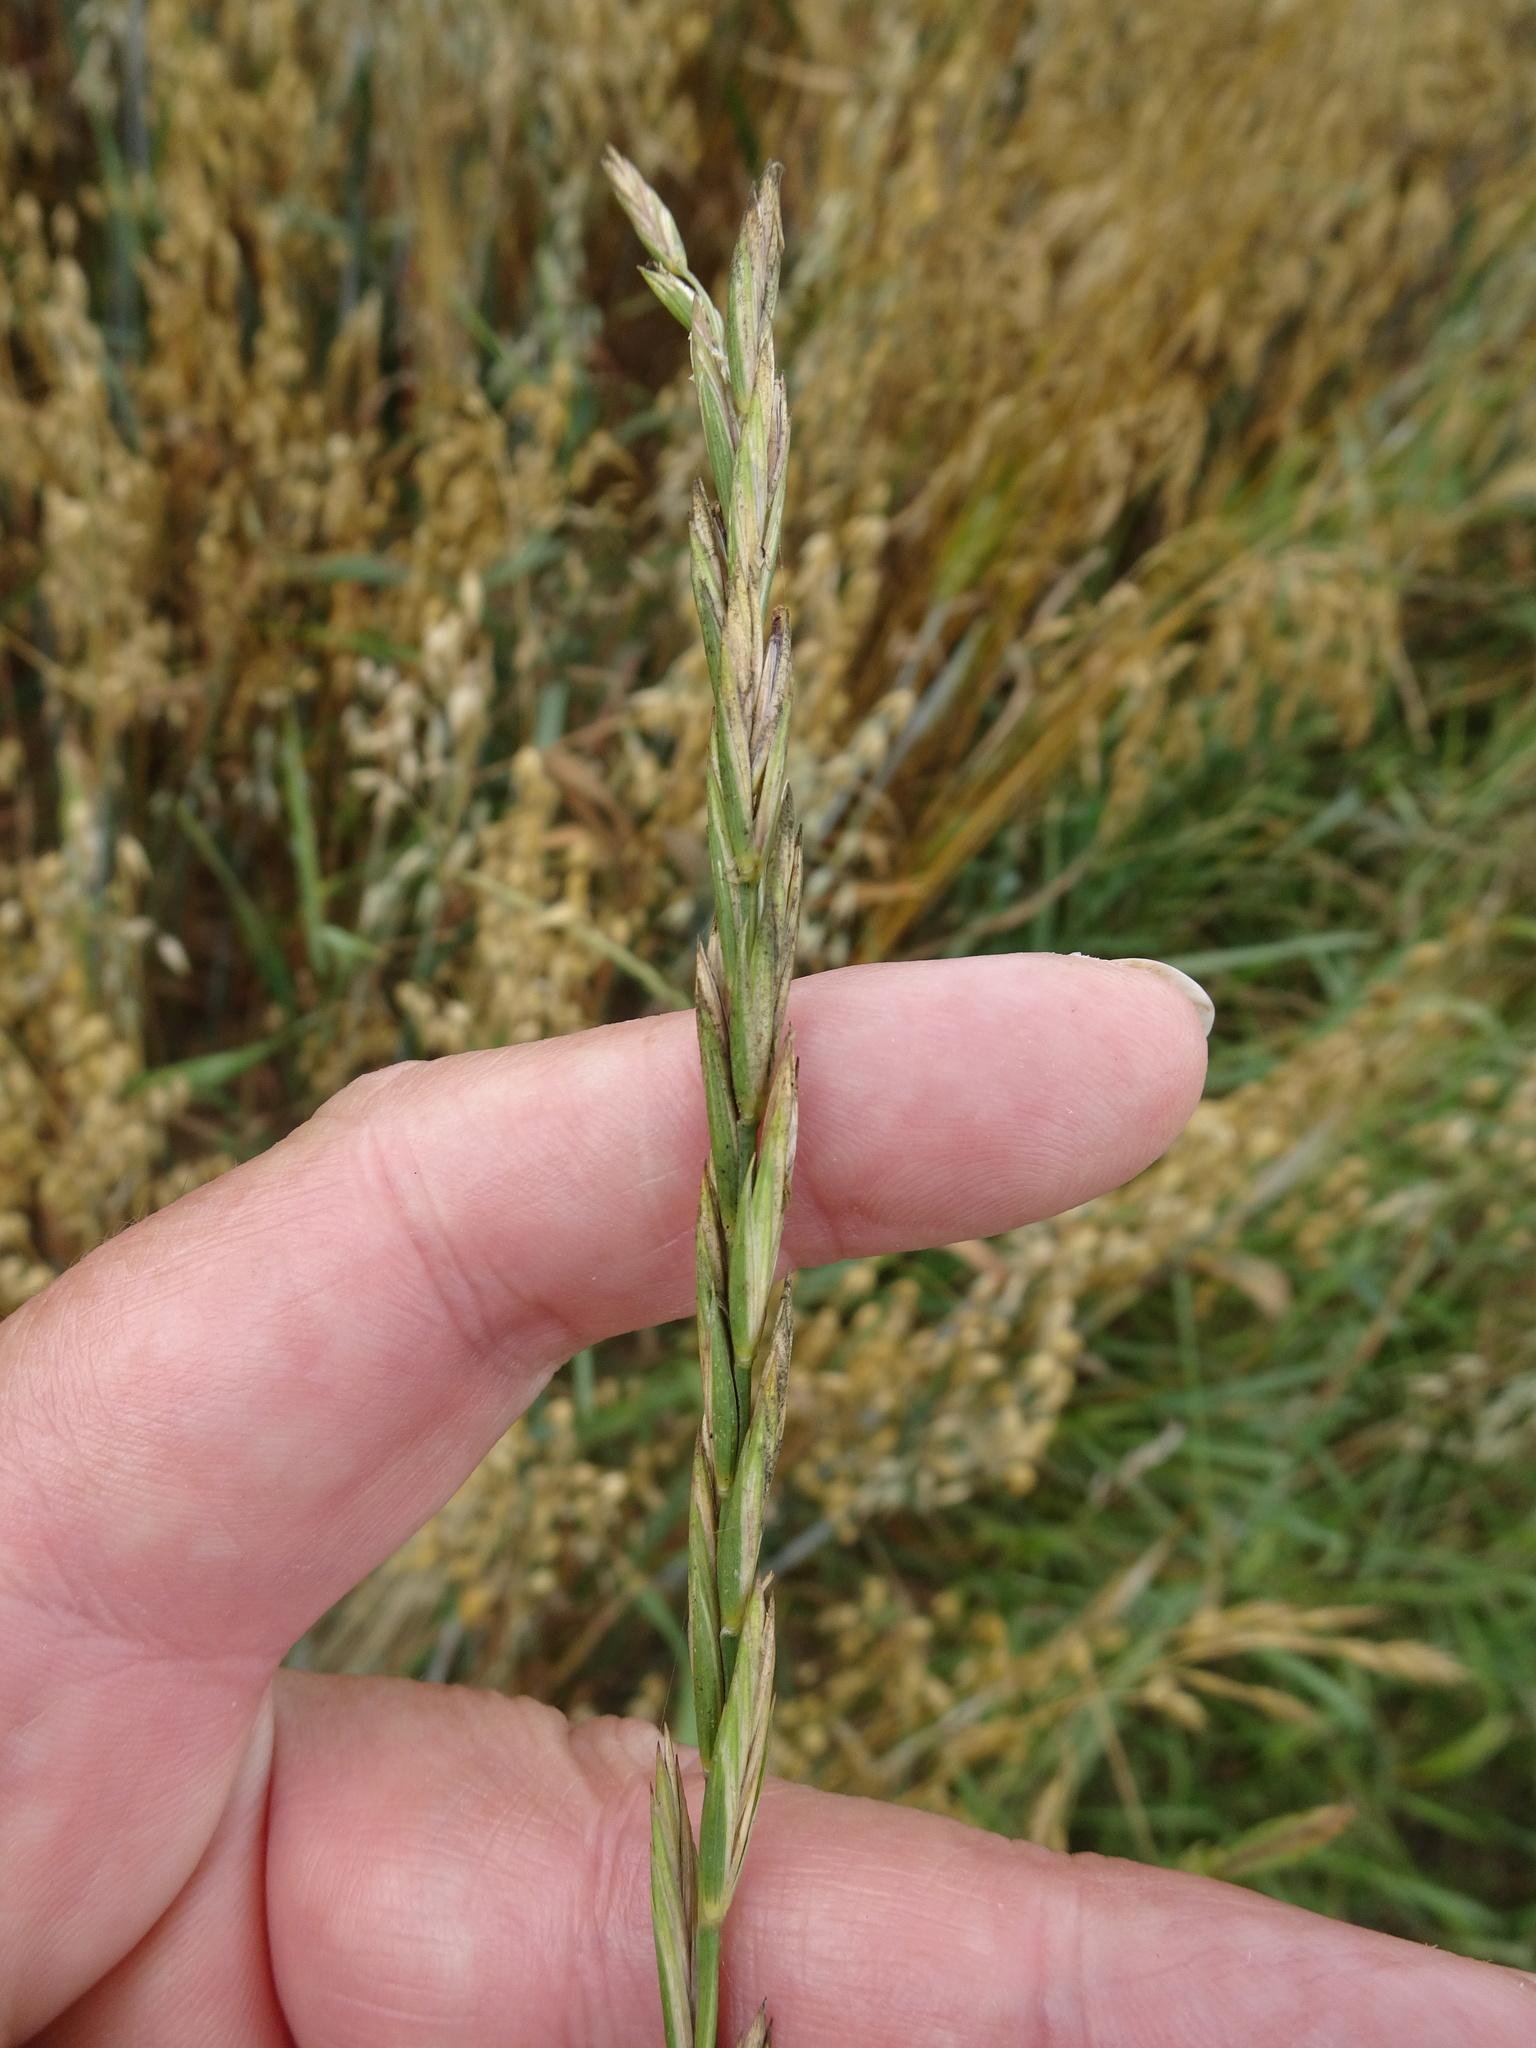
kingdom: Plantae
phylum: Tracheophyta
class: Liliopsida
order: Poales
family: Poaceae
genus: Elymus
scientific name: Elymus repens
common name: Quackgrass
